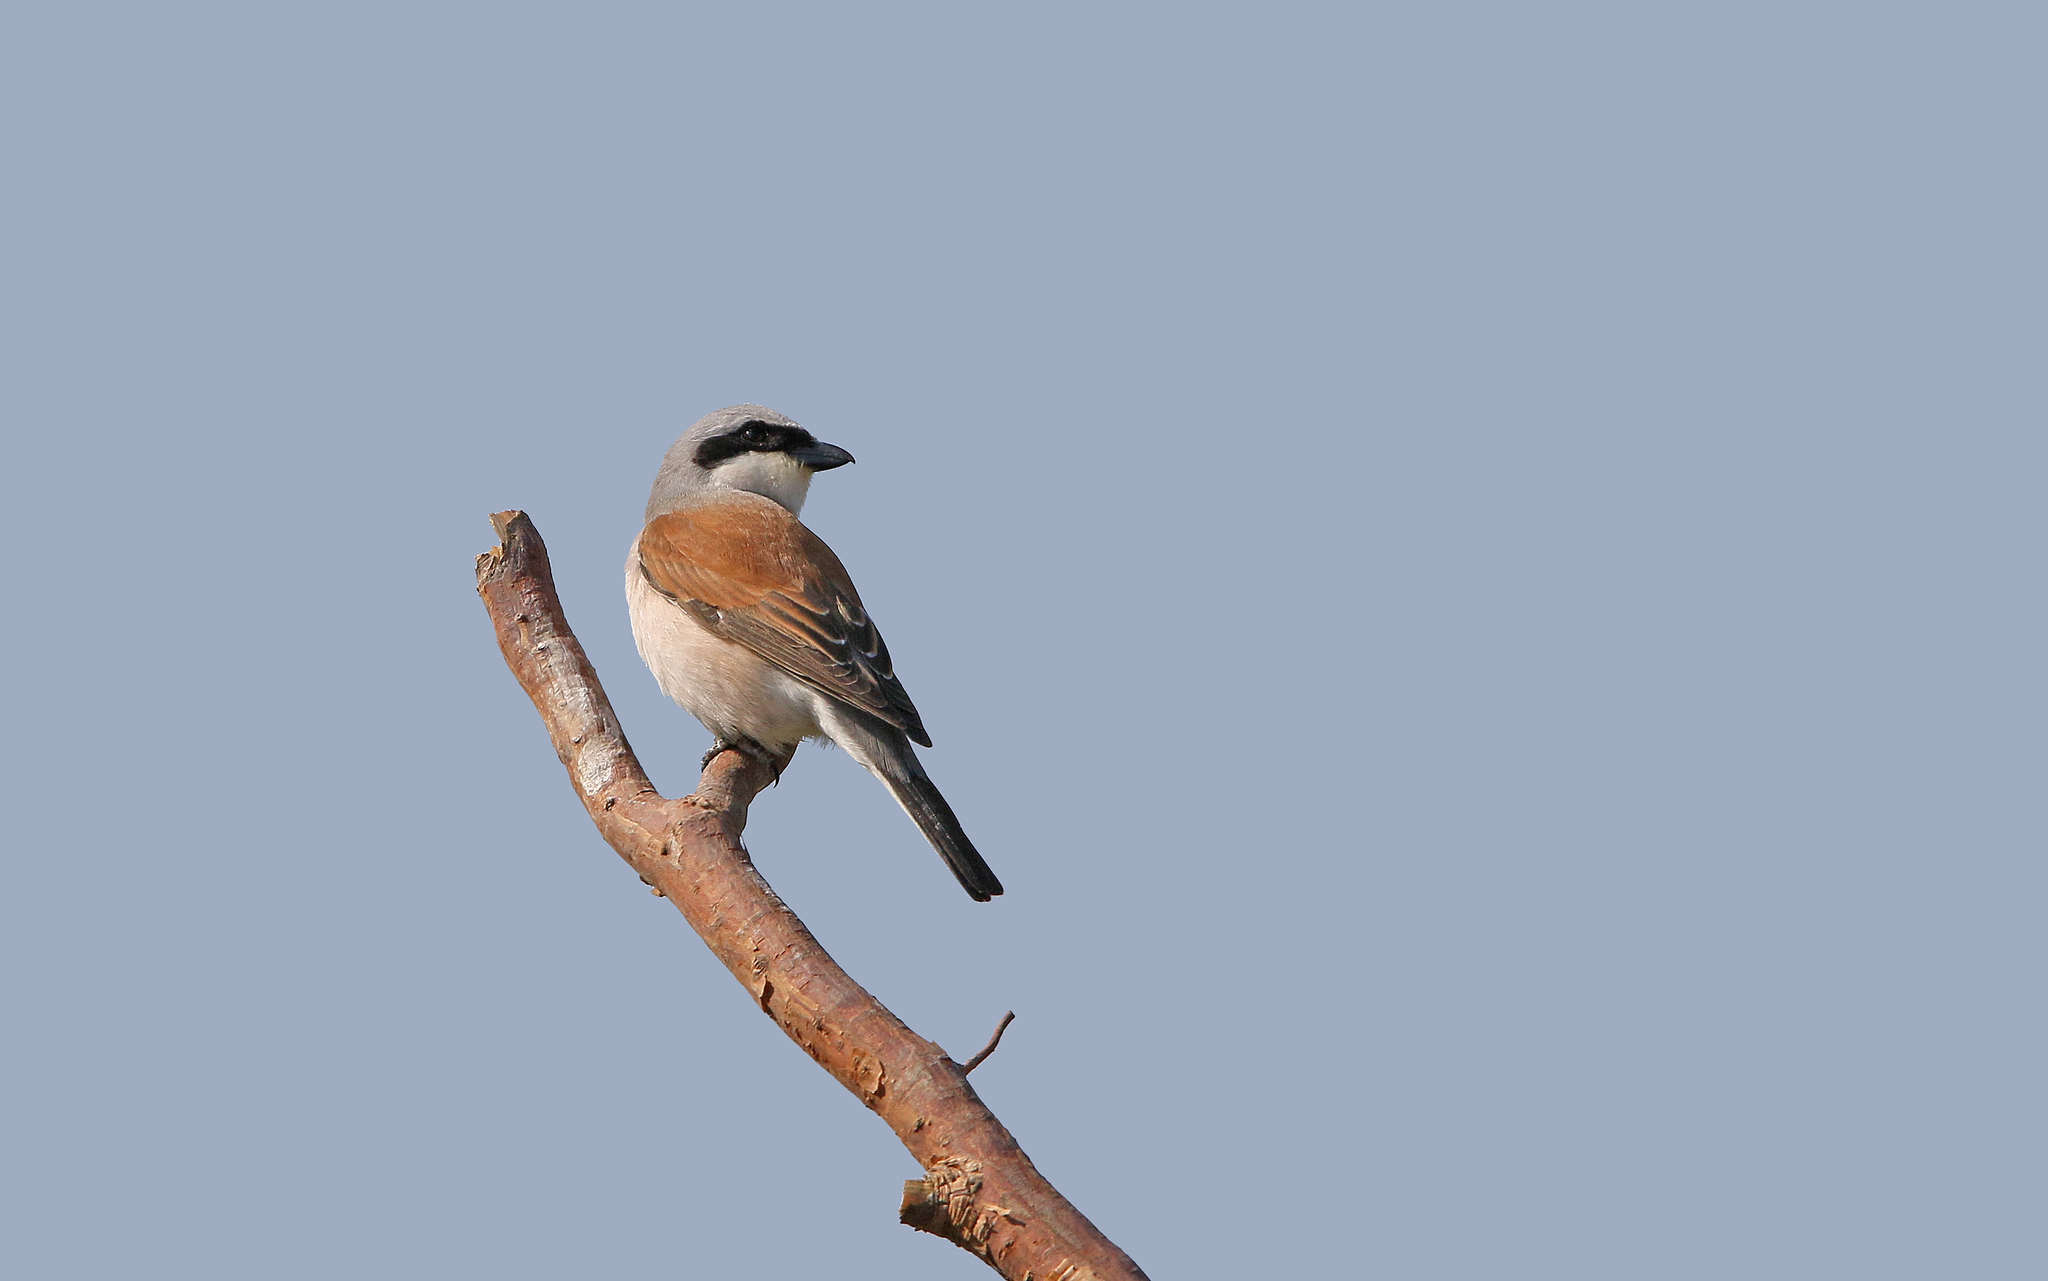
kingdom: Animalia
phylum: Chordata
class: Aves
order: Passeriformes
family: Laniidae
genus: Lanius
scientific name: Lanius collurio
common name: Red-backed shrike
